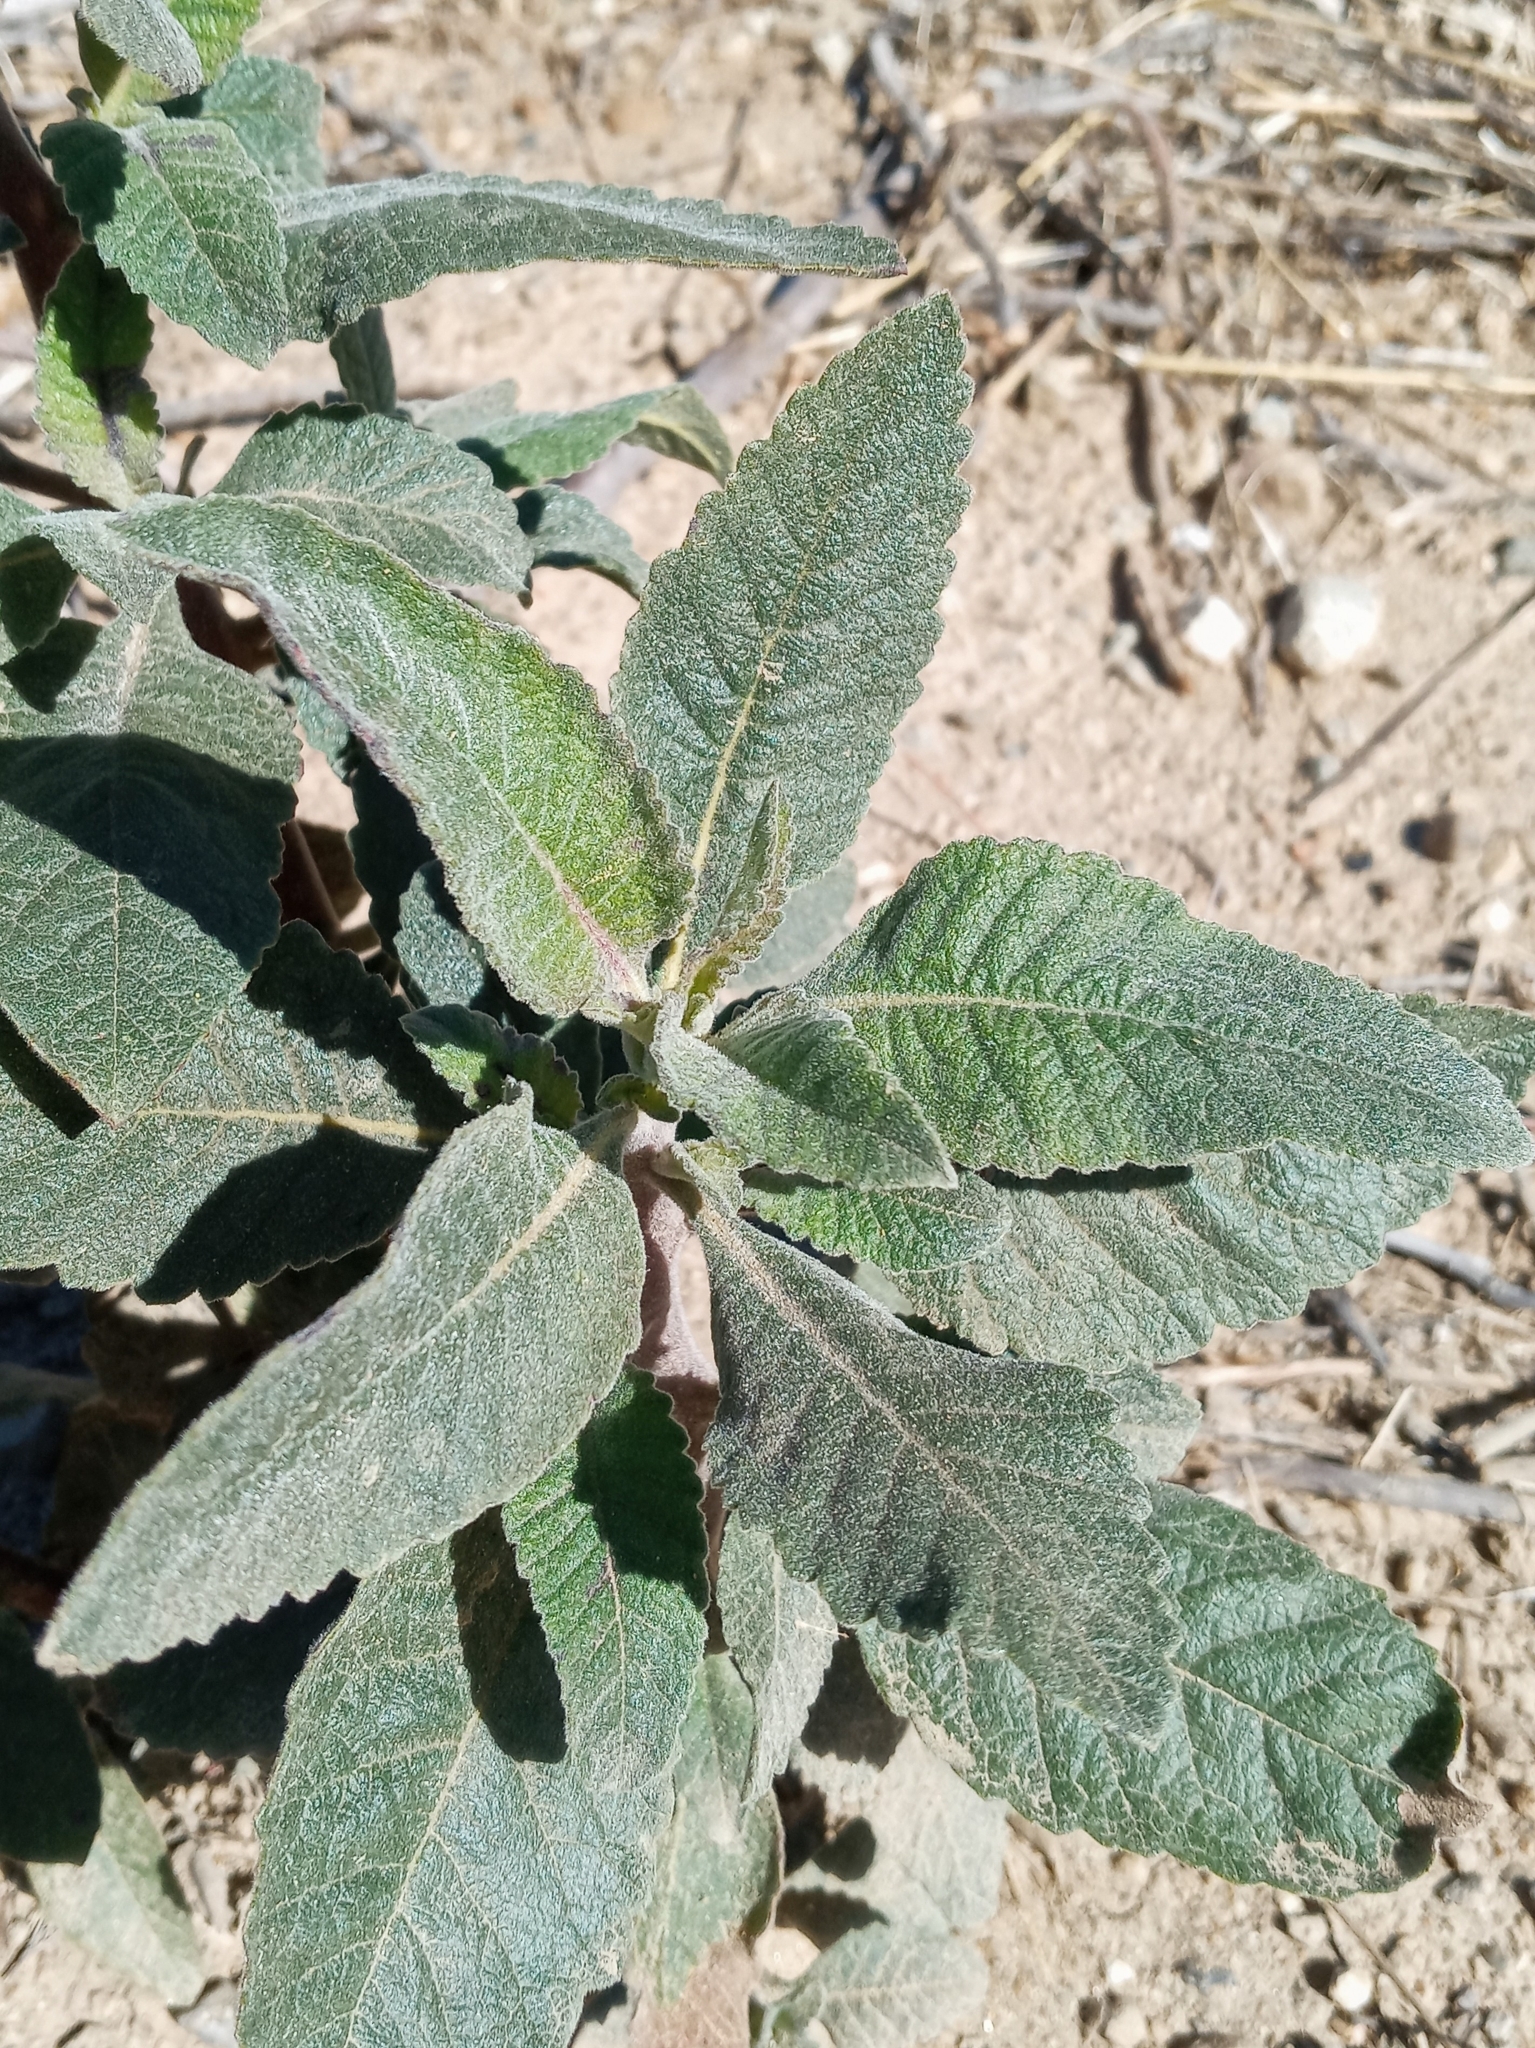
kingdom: Plantae
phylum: Tracheophyta
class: Magnoliopsida
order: Boraginales
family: Namaceae
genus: Eriodictyon
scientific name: Eriodictyon crassifolium
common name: Thick-leaf yerba-santa
